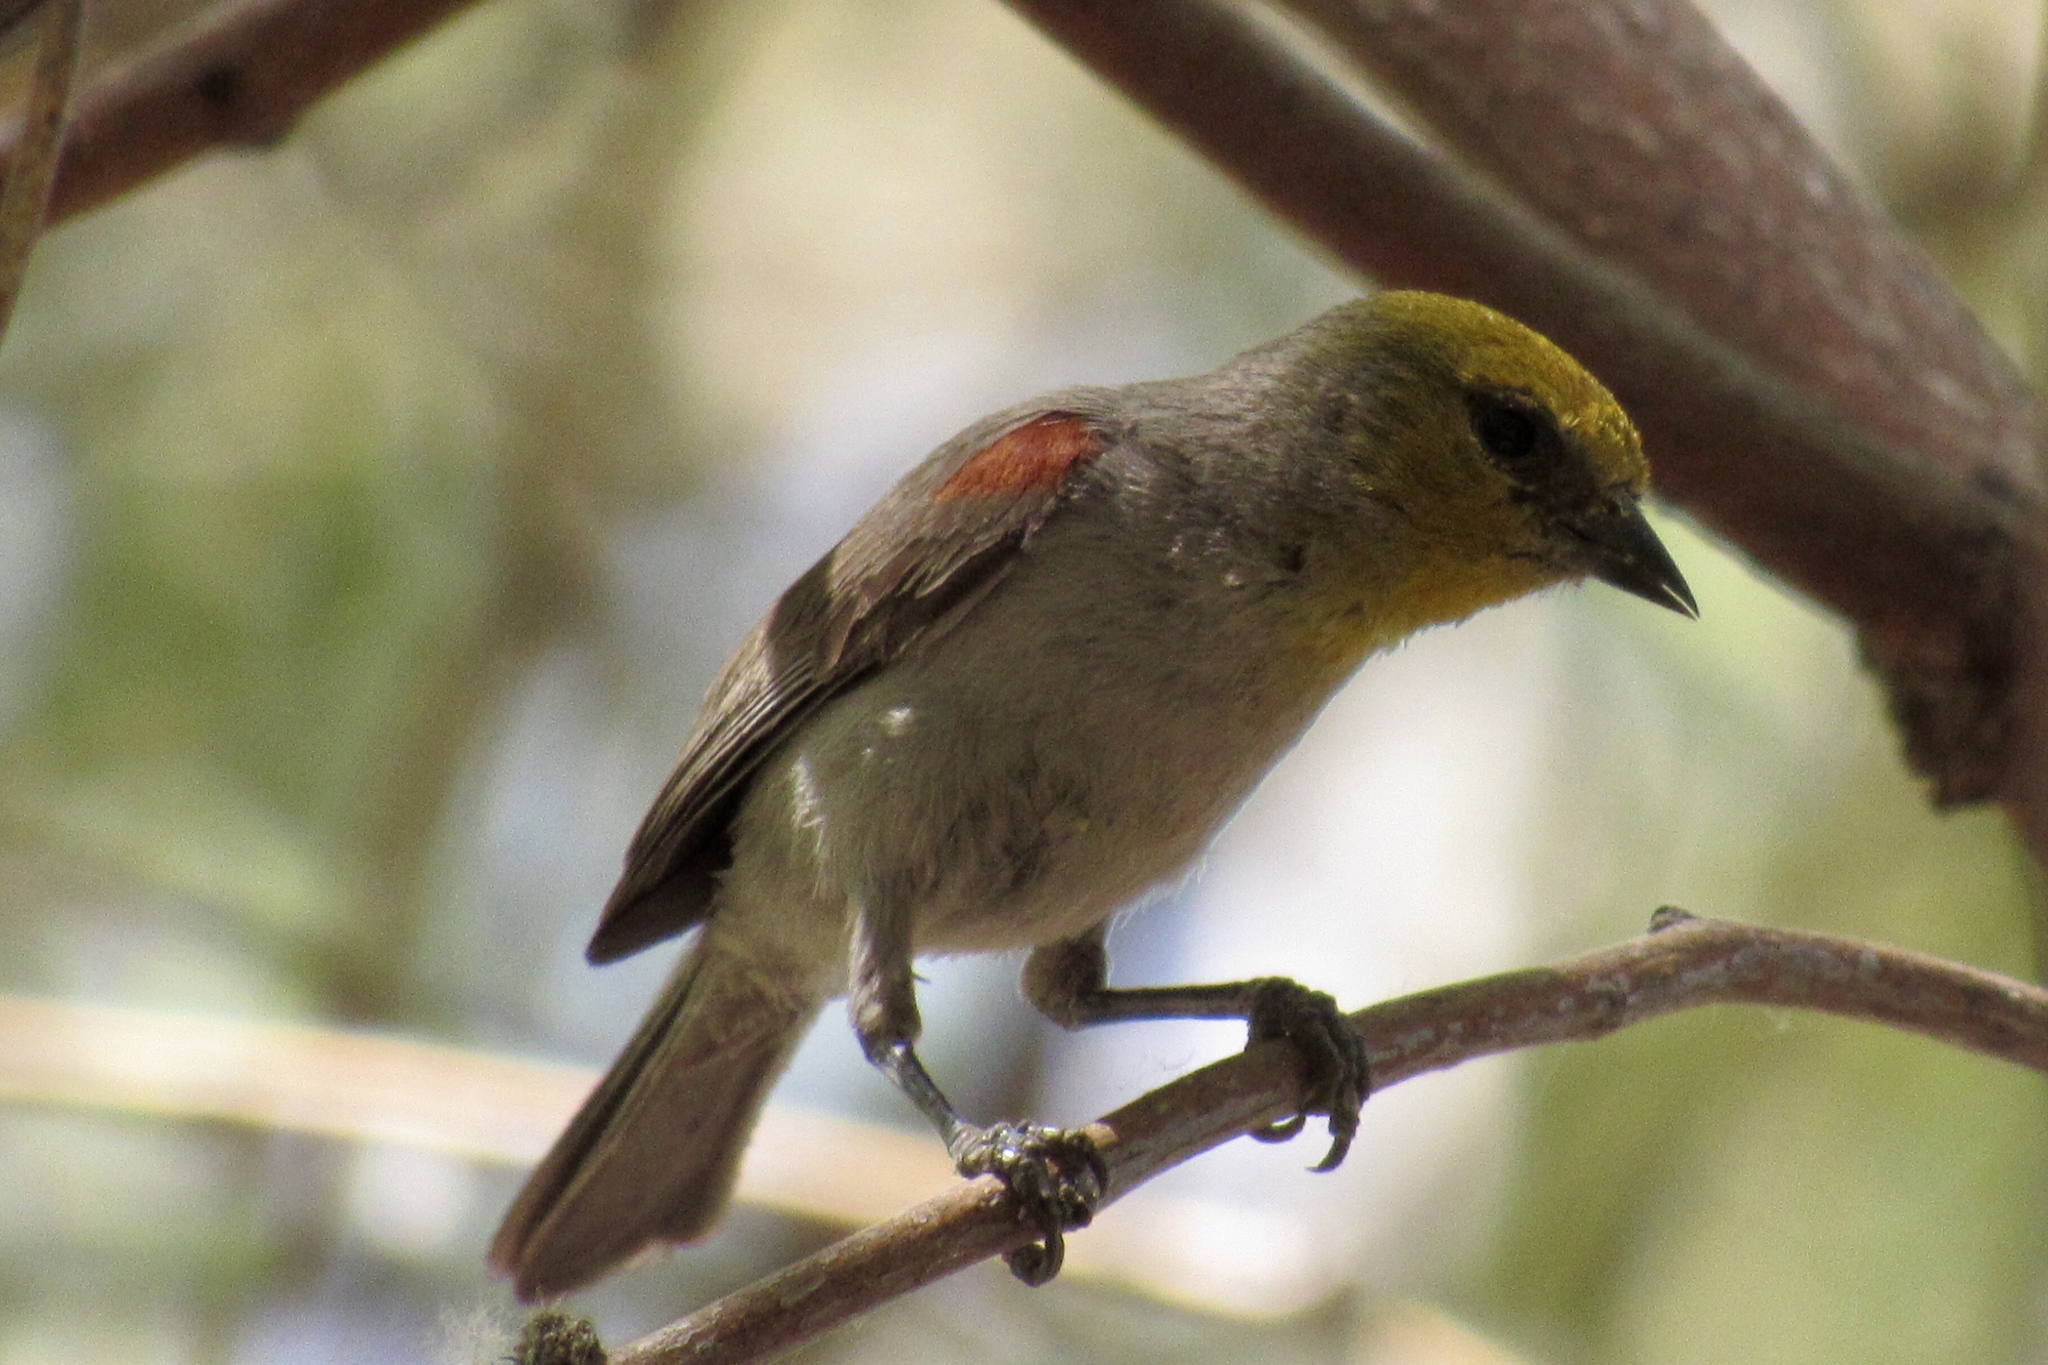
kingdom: Animalia
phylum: Chordata
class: Aves
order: Passeriformes
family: Remizidae
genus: Auriparus
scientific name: Auriparus flaviceps
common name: Verdin
